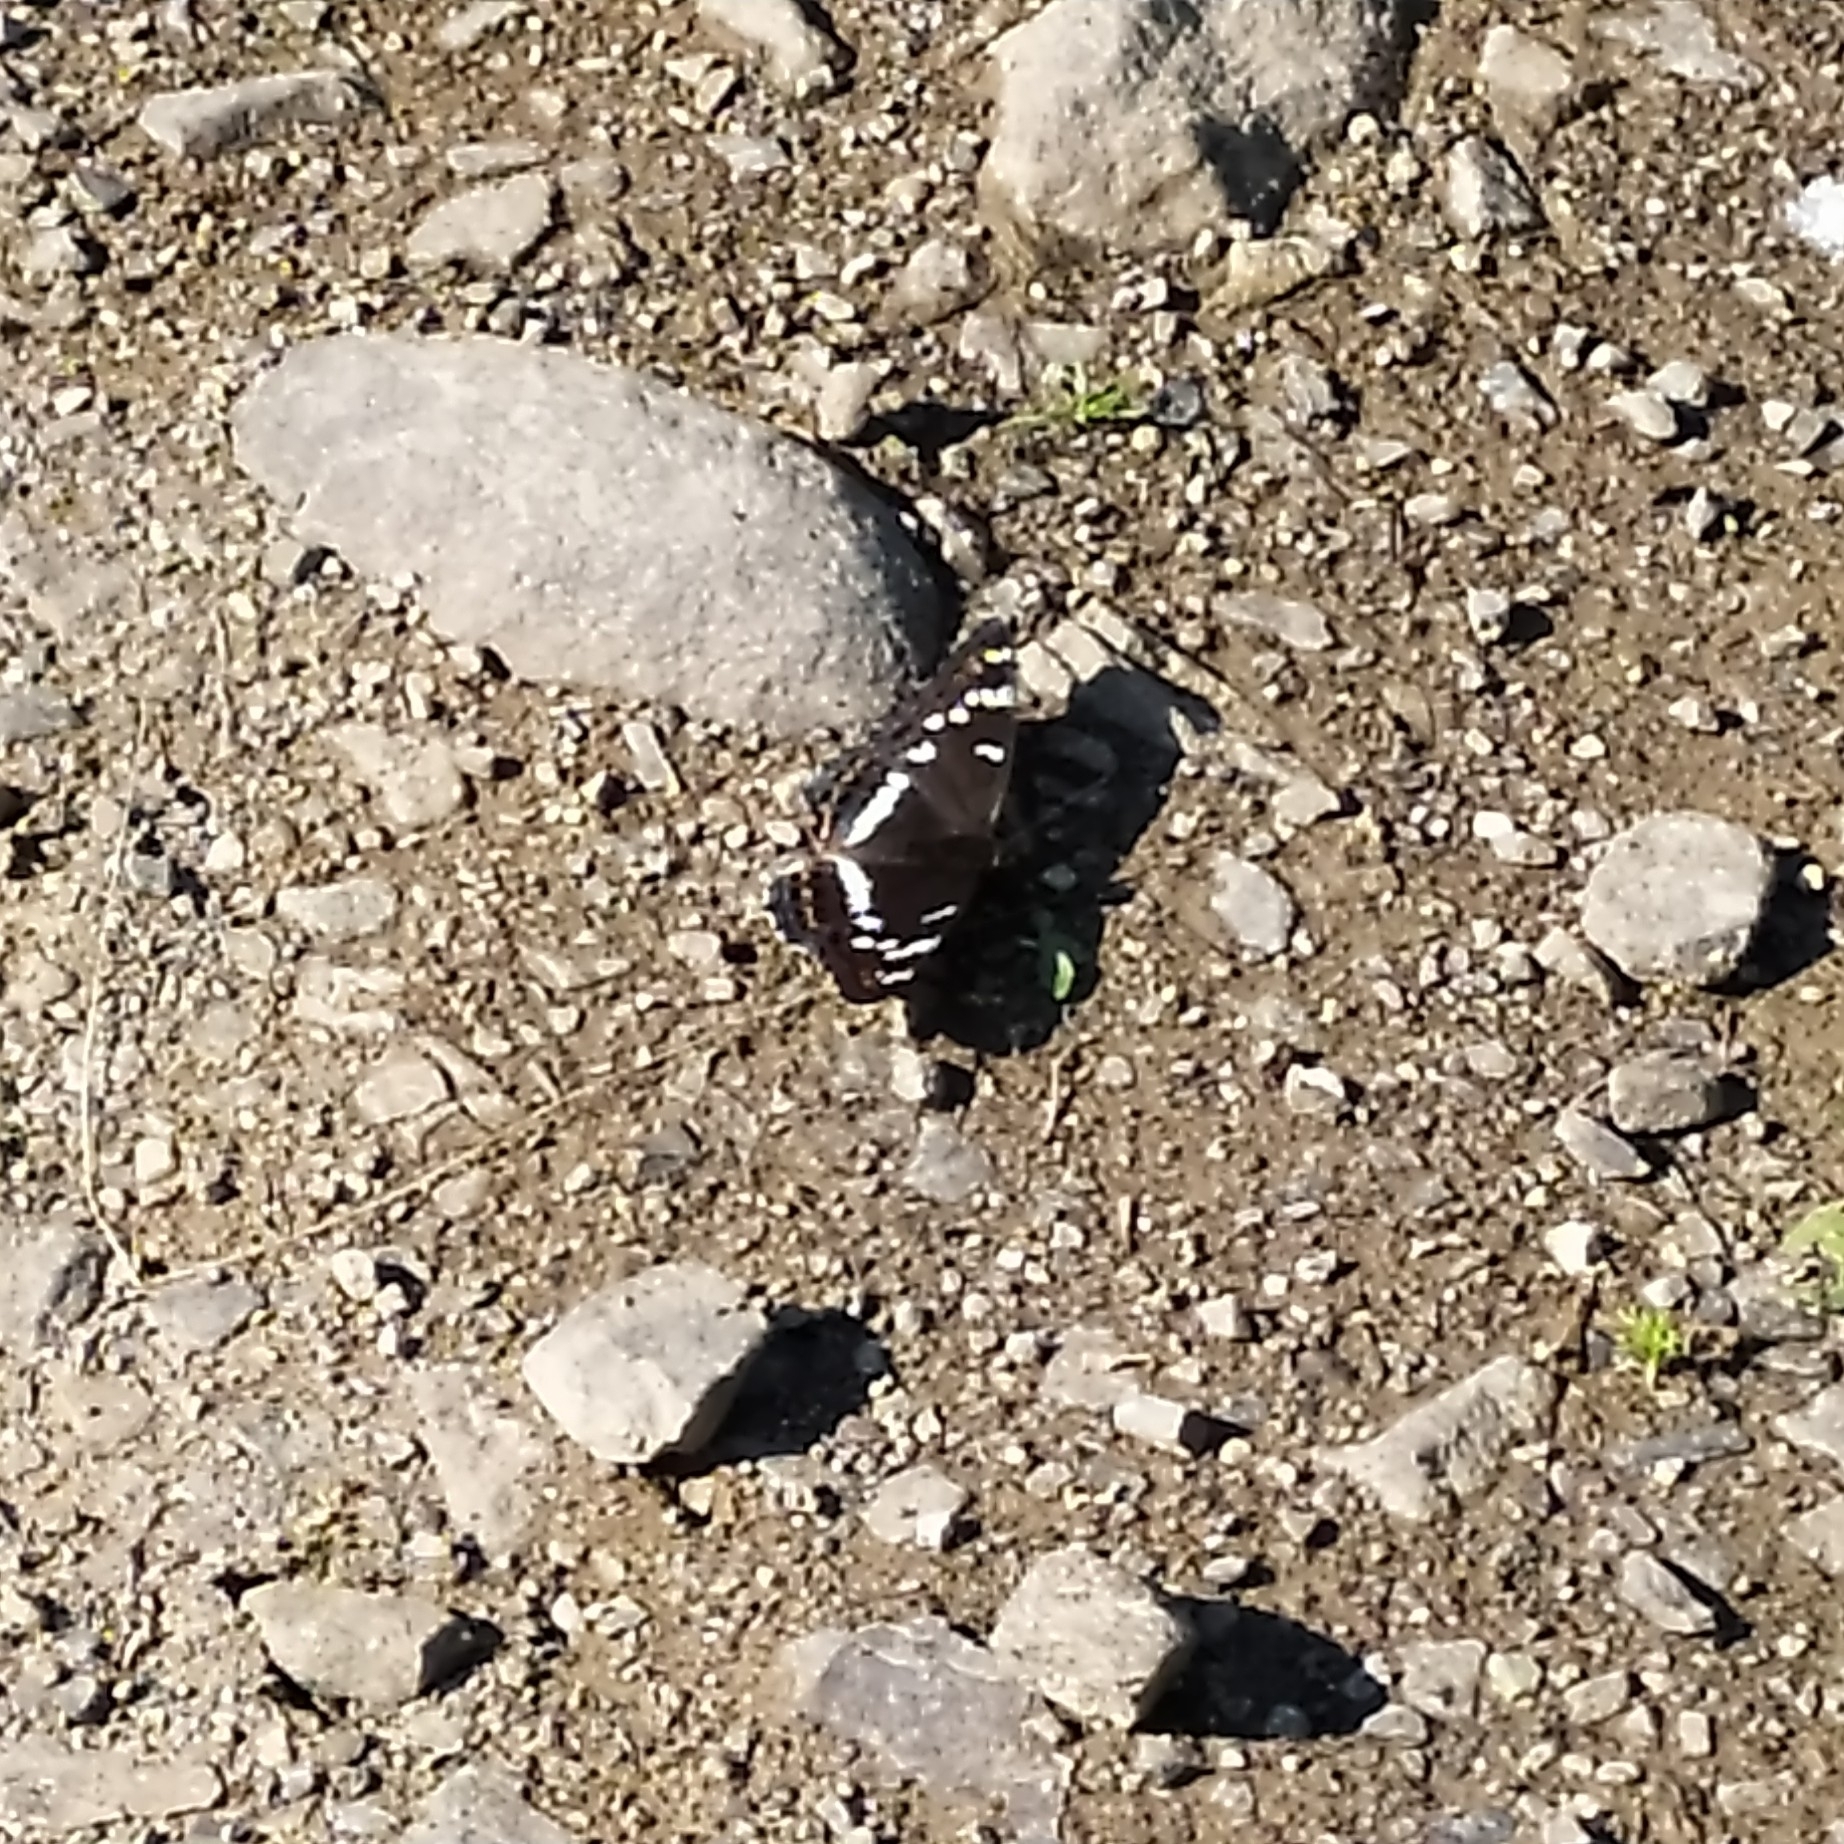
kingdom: Animalia
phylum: Arthropoda
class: Insecta
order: Lepidoptera
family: Nymphalidae
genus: Limenitis
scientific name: Limenitis populi
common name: Poplar admiral
